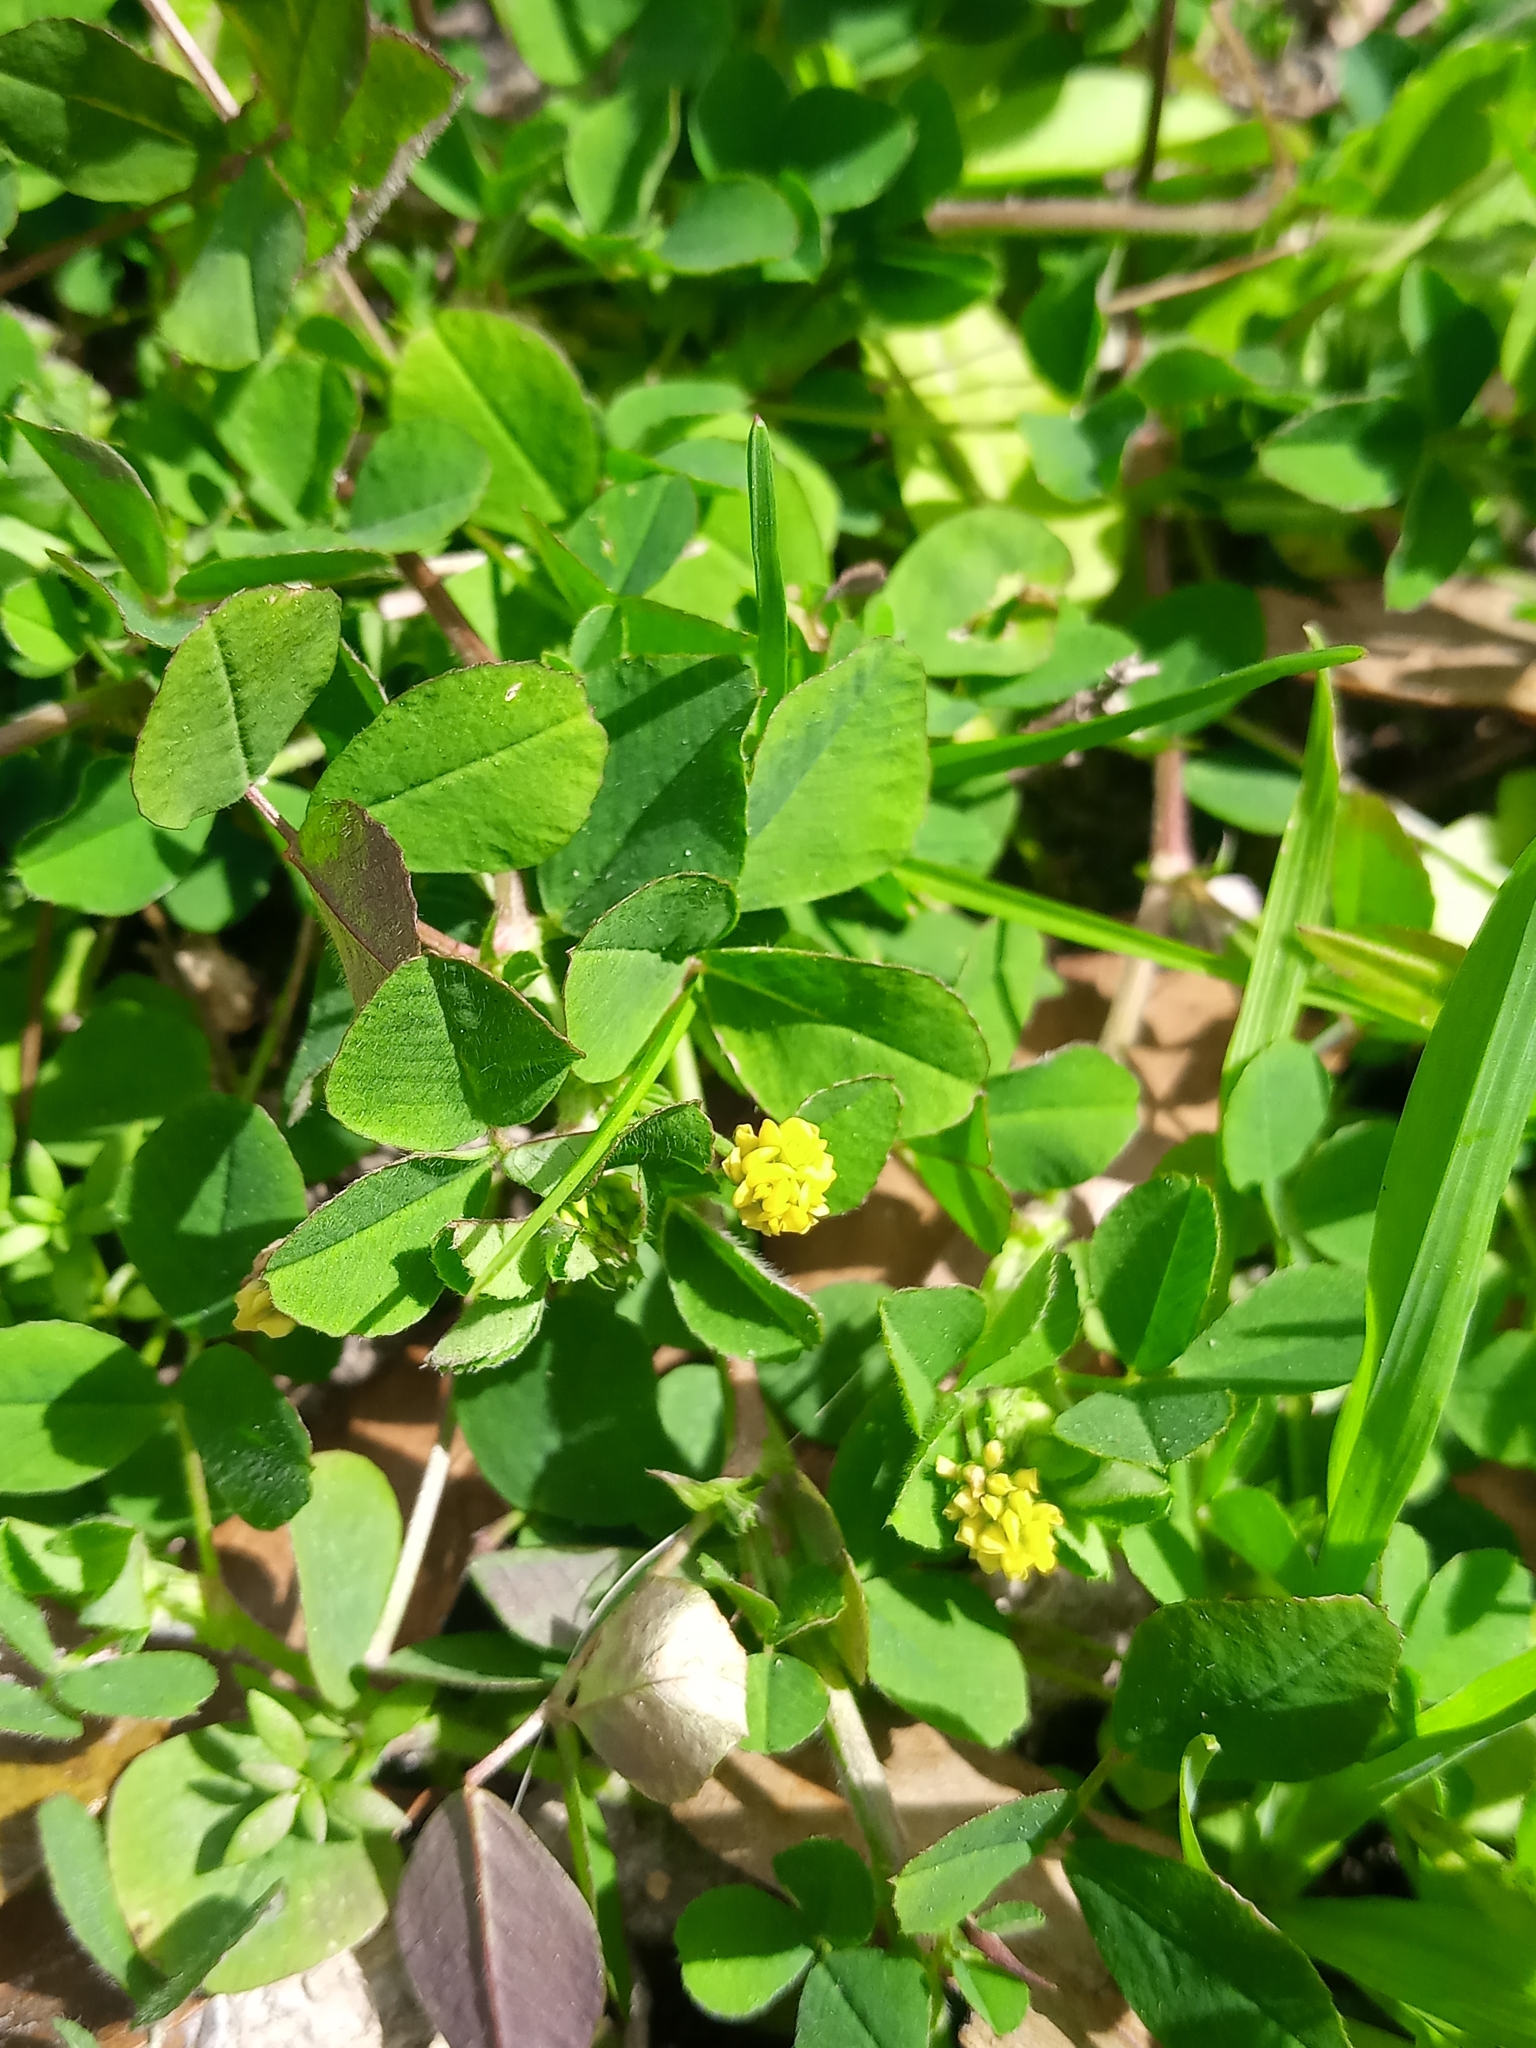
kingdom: Plantae
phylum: Tracheophyta
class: Magnoliopsida
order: Fabales
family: Fabaceae
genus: Medicago
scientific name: Medicago lupulina
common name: Black medick
